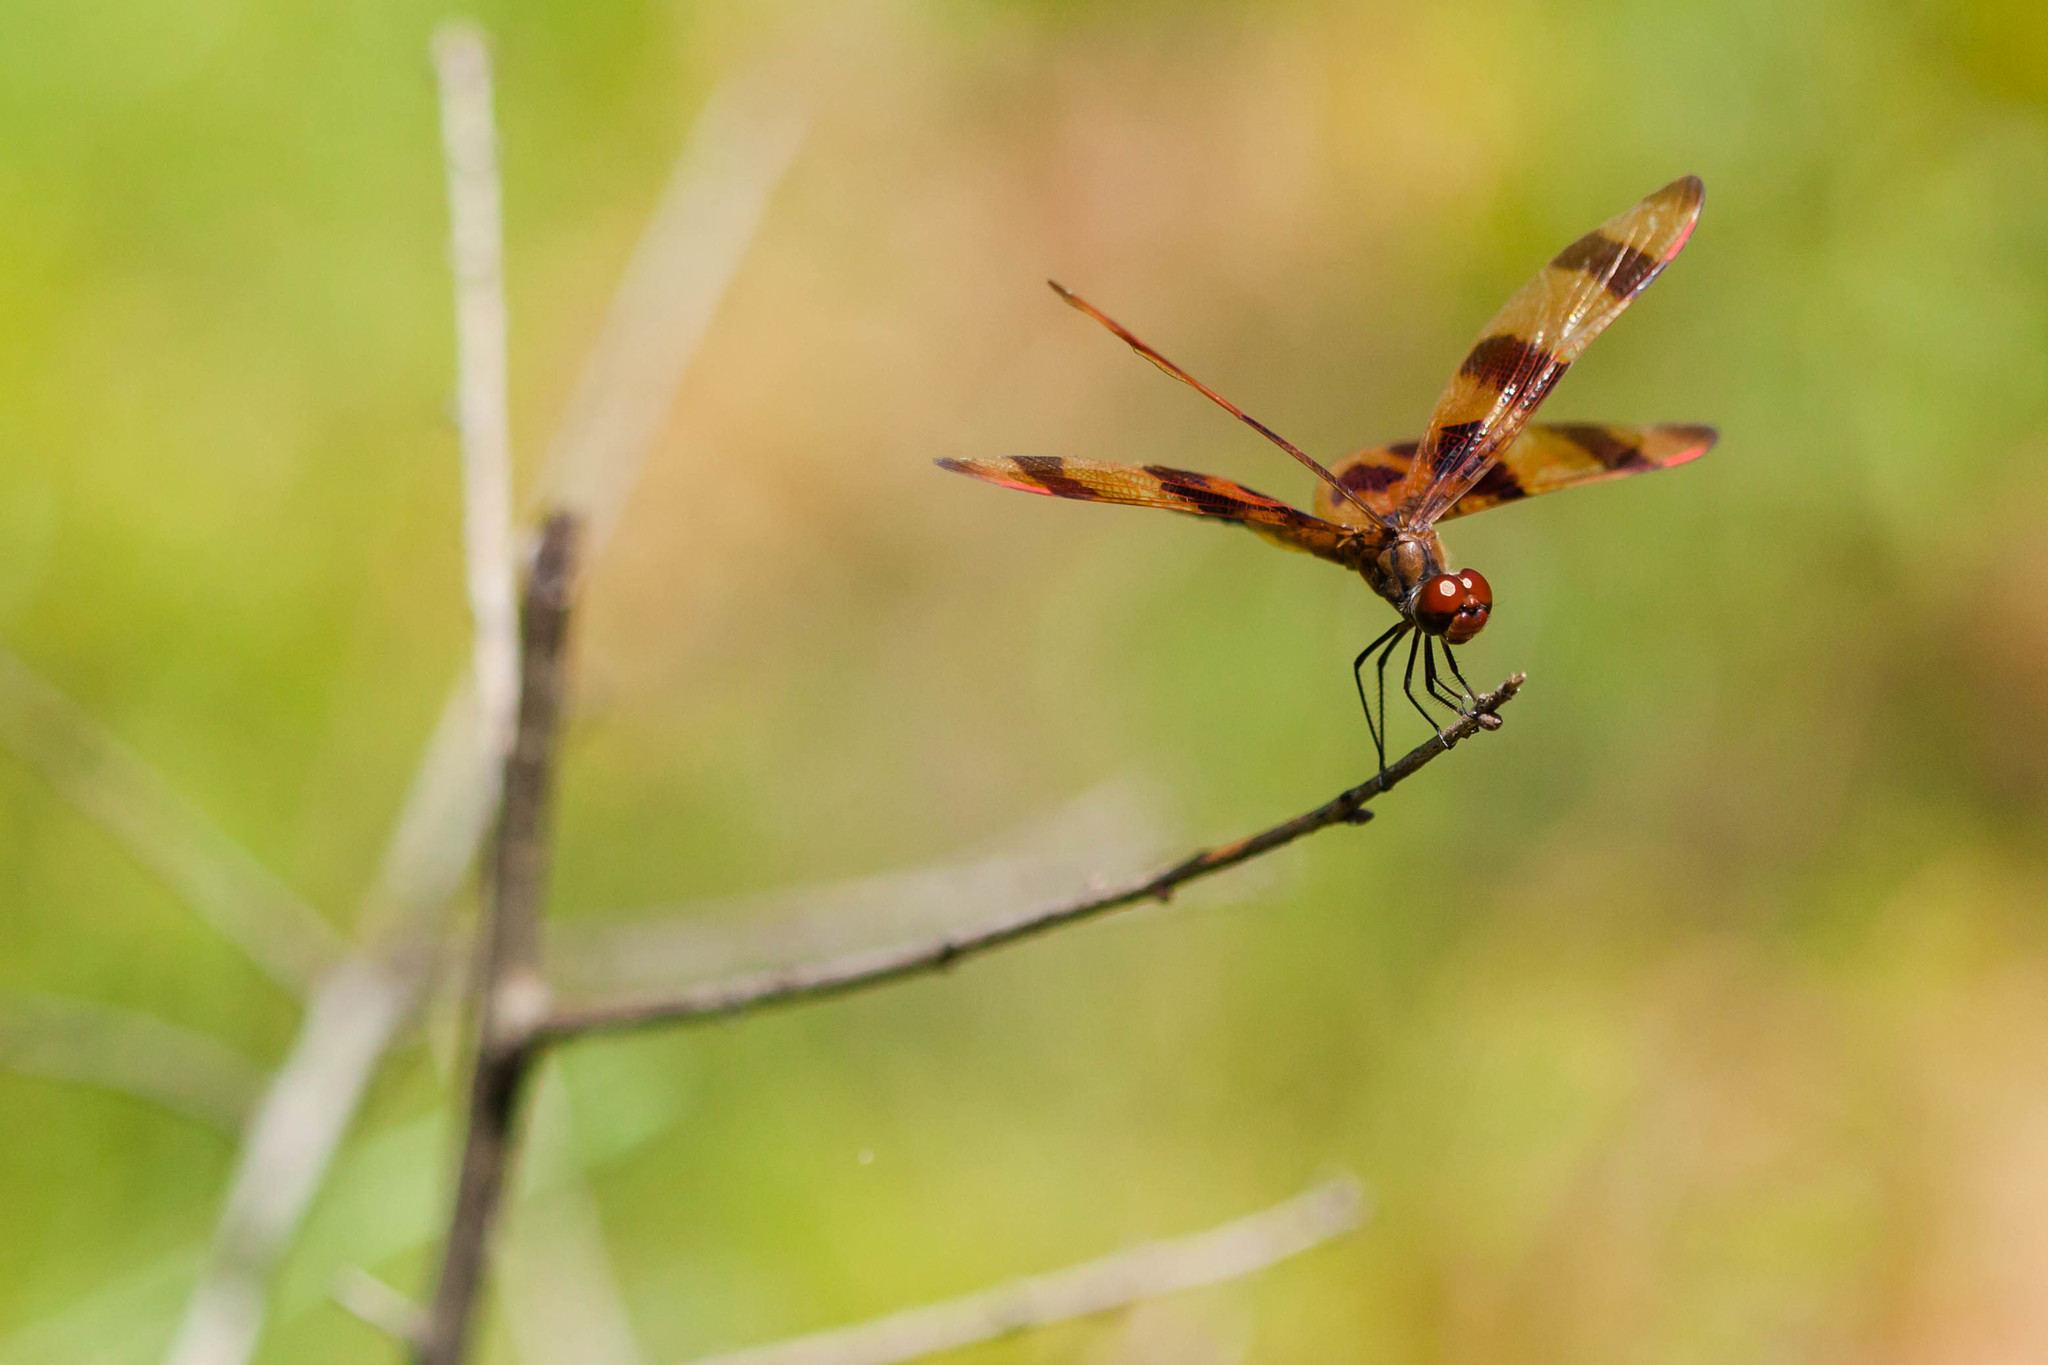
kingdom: Animalia
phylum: Arthropoda
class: Insecta
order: Odonata
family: Libellulidae
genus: Celithemis
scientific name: Celithemis eponina
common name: Halloween pennant
